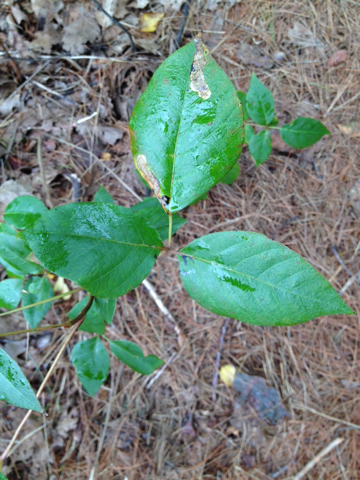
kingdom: Plantae
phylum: Tracheophyta
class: Magnoliopsida
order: Sapindales
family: Anacardiaceae
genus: Toxicodendron
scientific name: Toxicodendron
